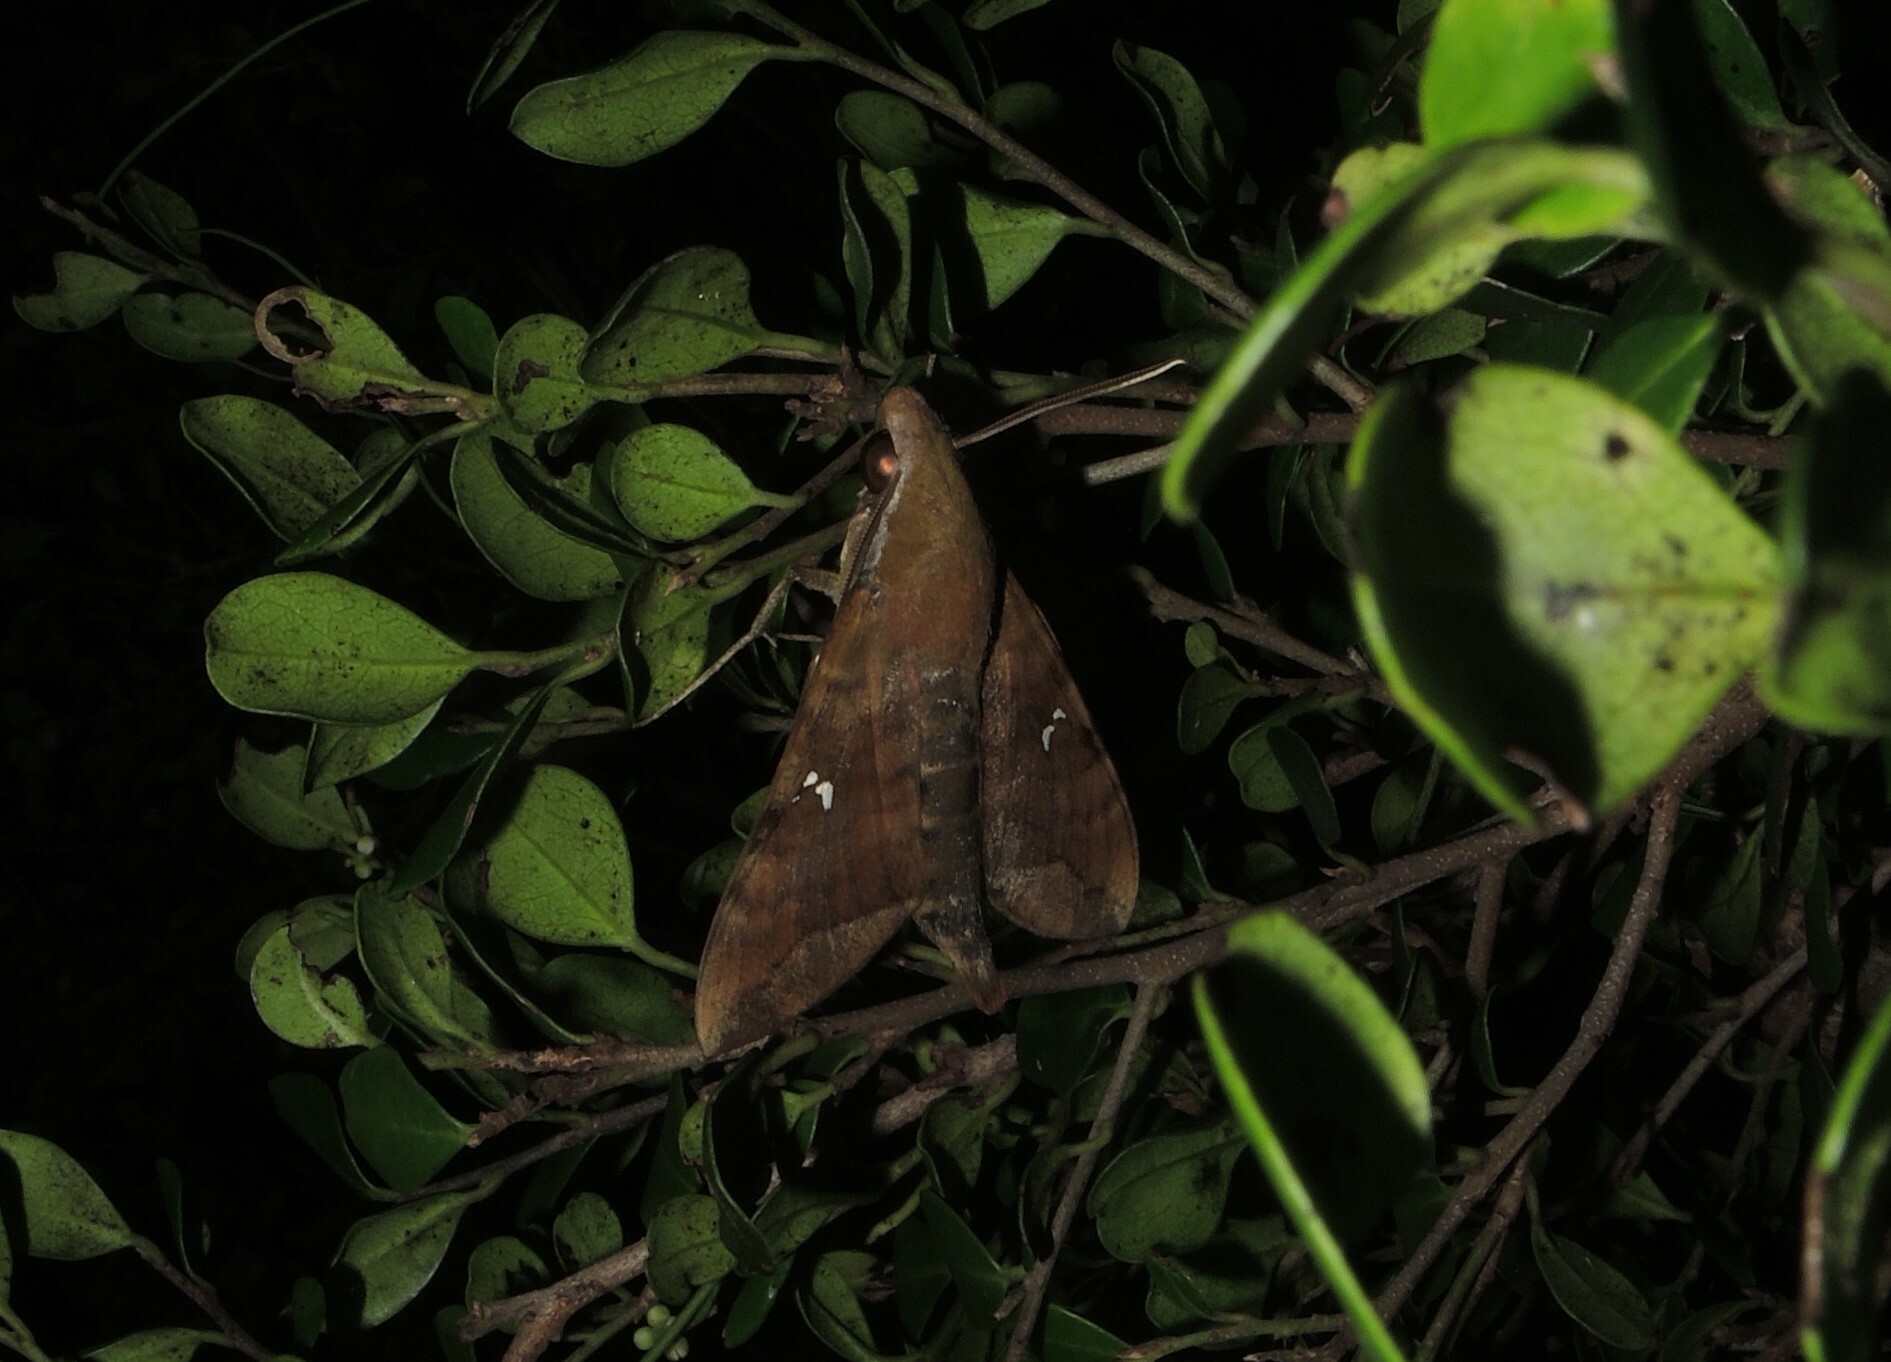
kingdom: Animalia
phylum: Arthropoda
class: Insecta
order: Lepidoptera
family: Sphingidae
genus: Nephele
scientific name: Nephele hespera
